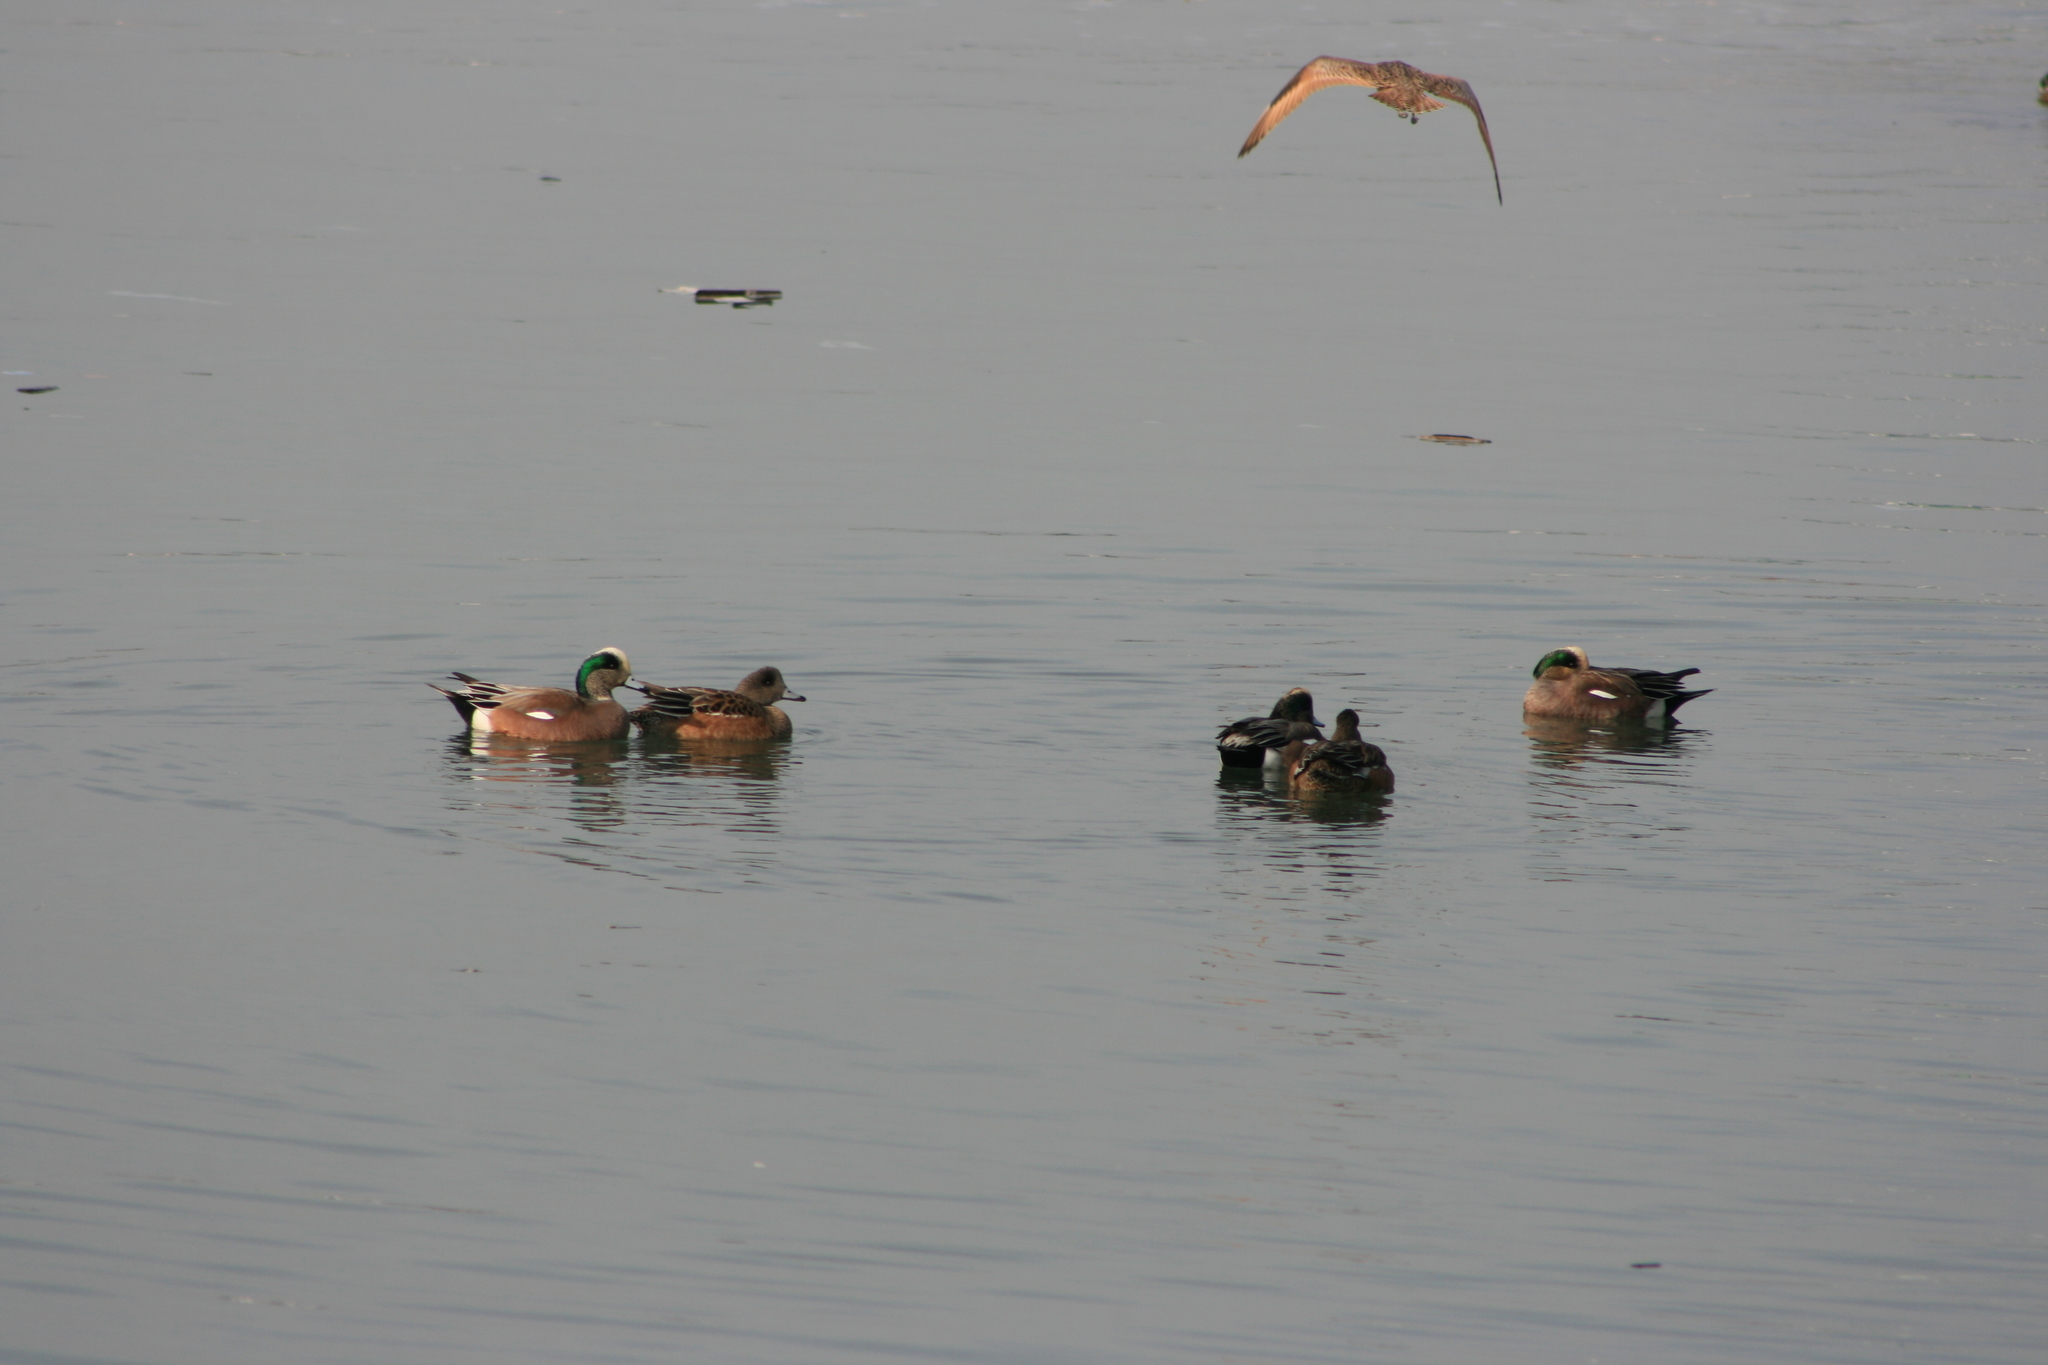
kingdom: Animalia
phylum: Chordata
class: Aves
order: Anseriformes
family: Anatidae
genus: Mareca
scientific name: Mareca americana
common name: American wigeon
